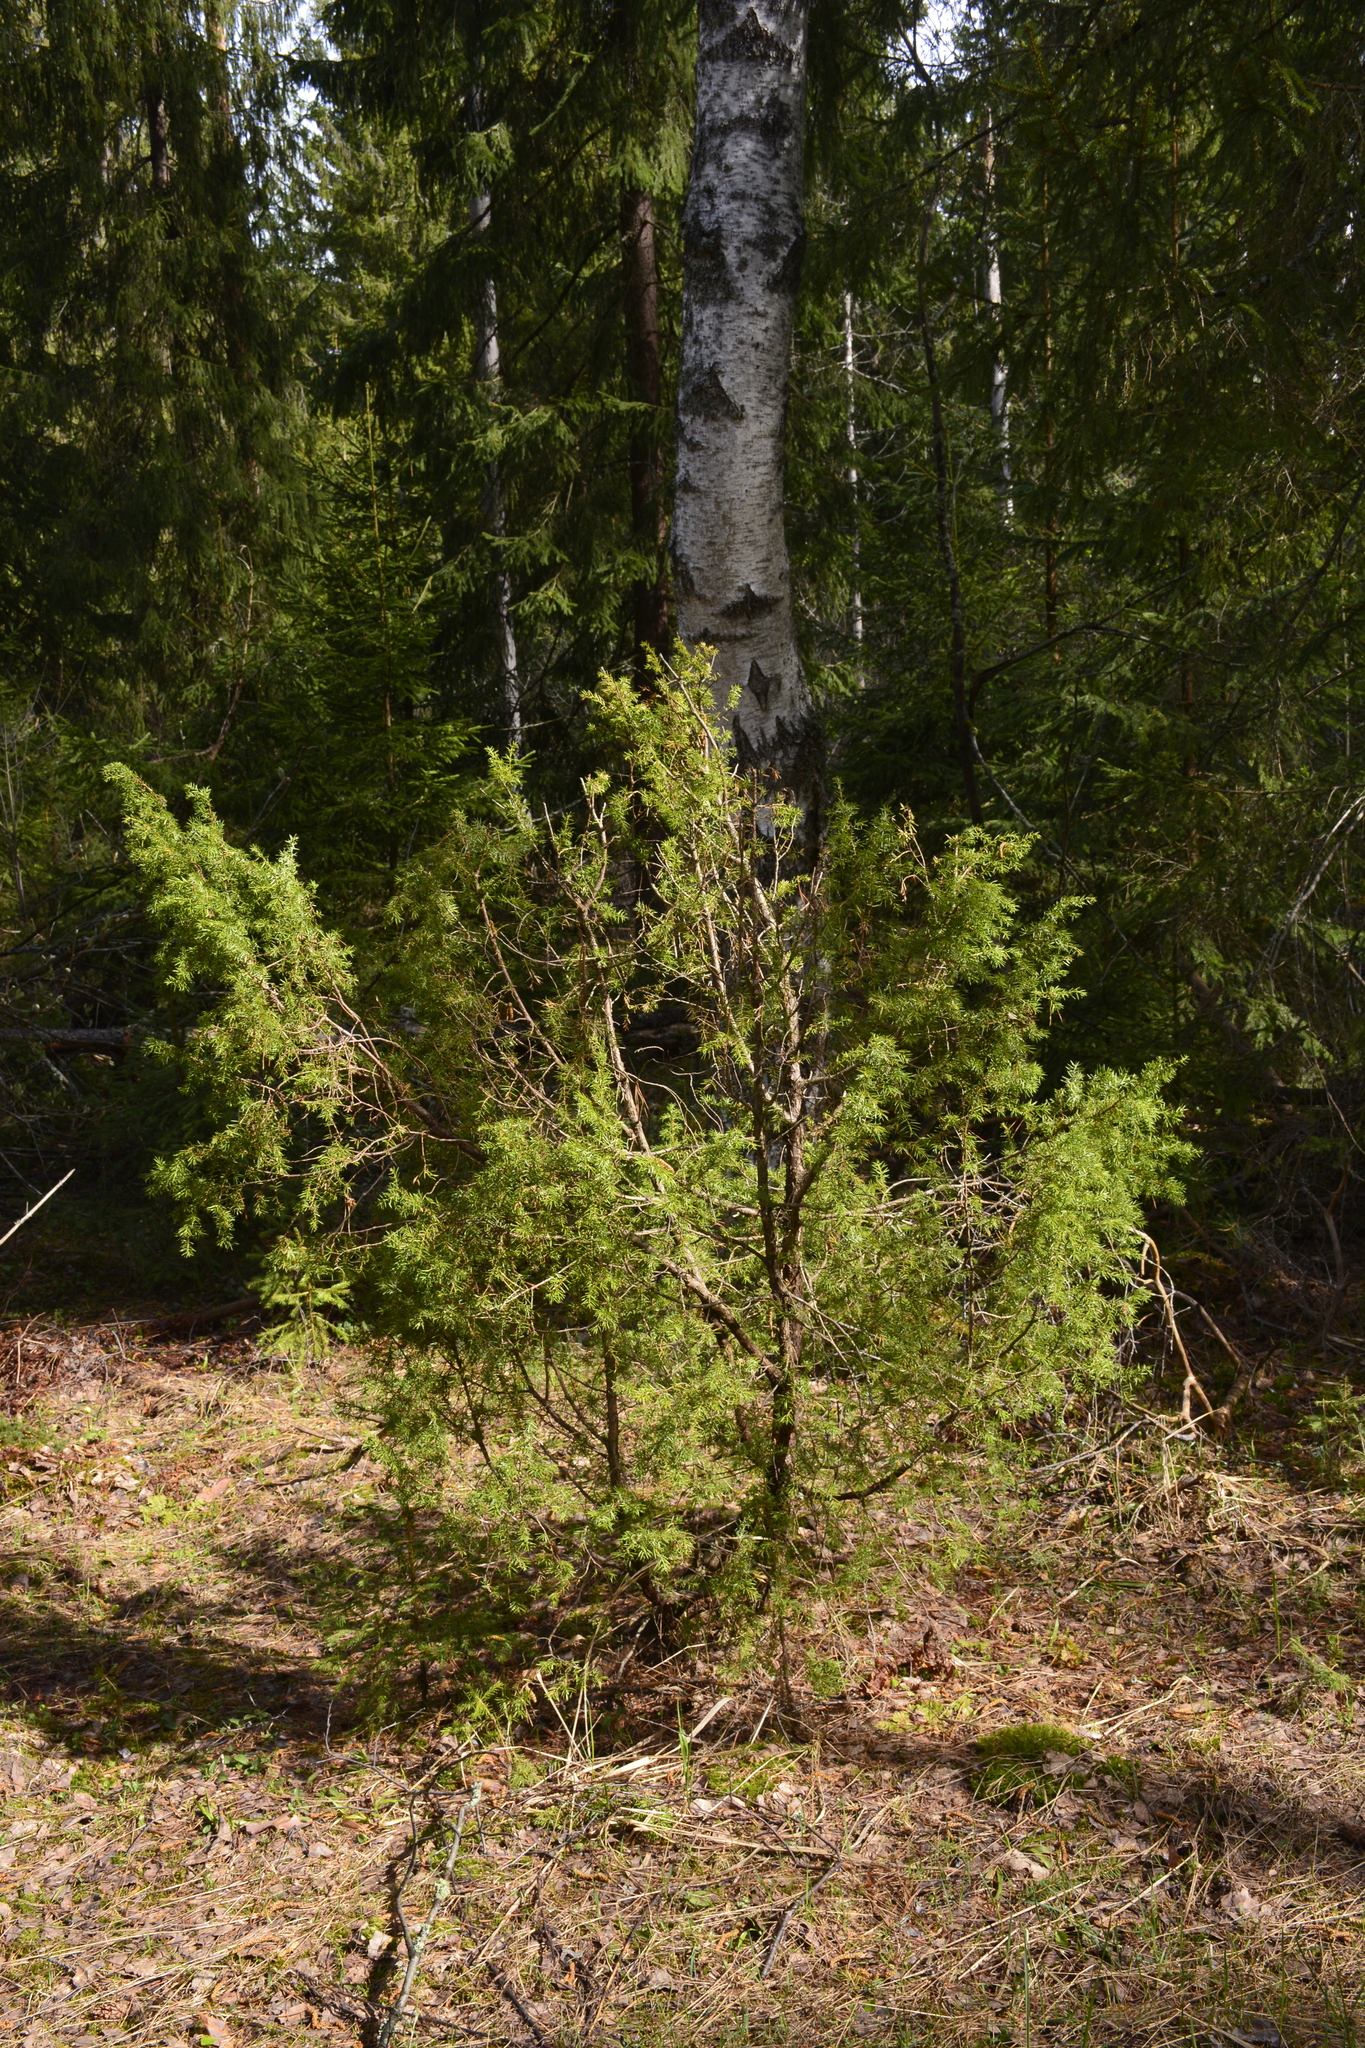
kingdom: Plantae
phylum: Tracheophyta
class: Pinopsida
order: Pinales
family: Cupressaceae
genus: Juniperus
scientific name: Juniperus communis
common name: Common juniper
